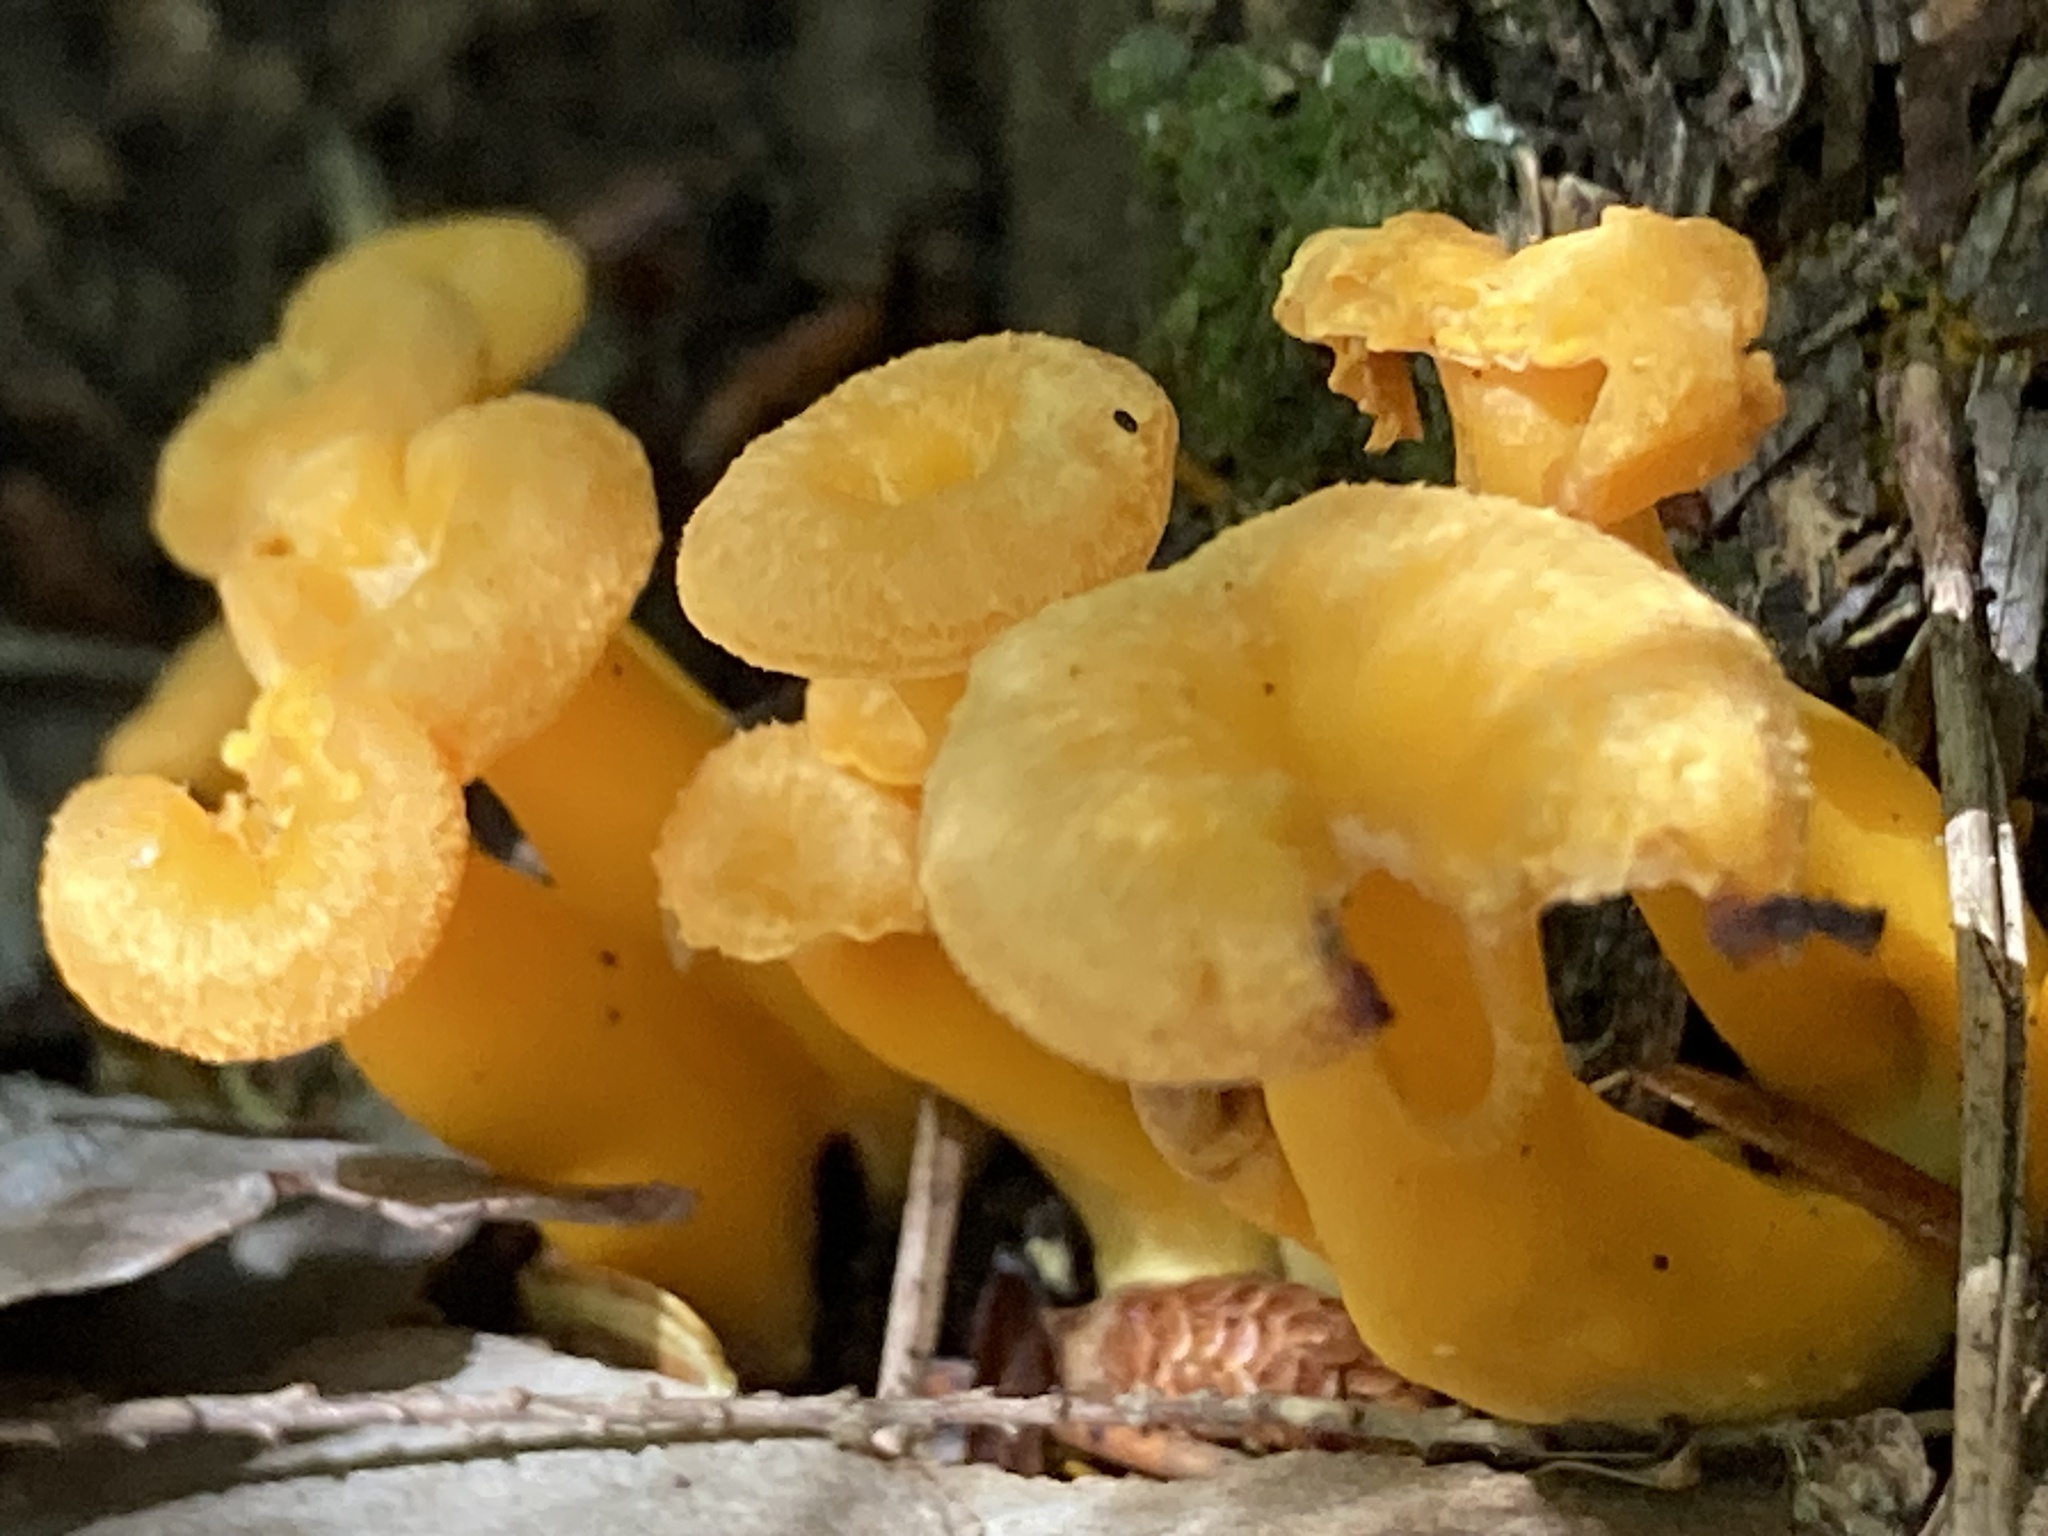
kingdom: Fungi
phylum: Basidiomycota
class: Agaricomycetes
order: Cantharellales
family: Hydnaceae
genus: Craterellus
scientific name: Craterellus ignicolor
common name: Flame chanterelle
